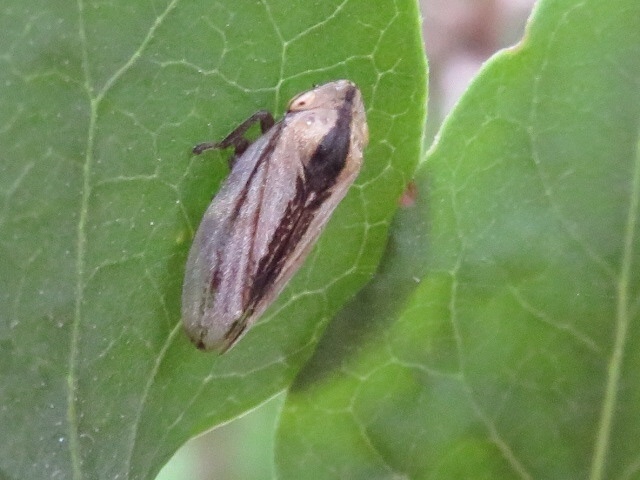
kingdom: Animalia
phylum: Arthropoda
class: Insecta
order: Hemiptera
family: Aphrophoridae
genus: Philaenus
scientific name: Philaenus spumarius
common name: Meadow spittlebug
